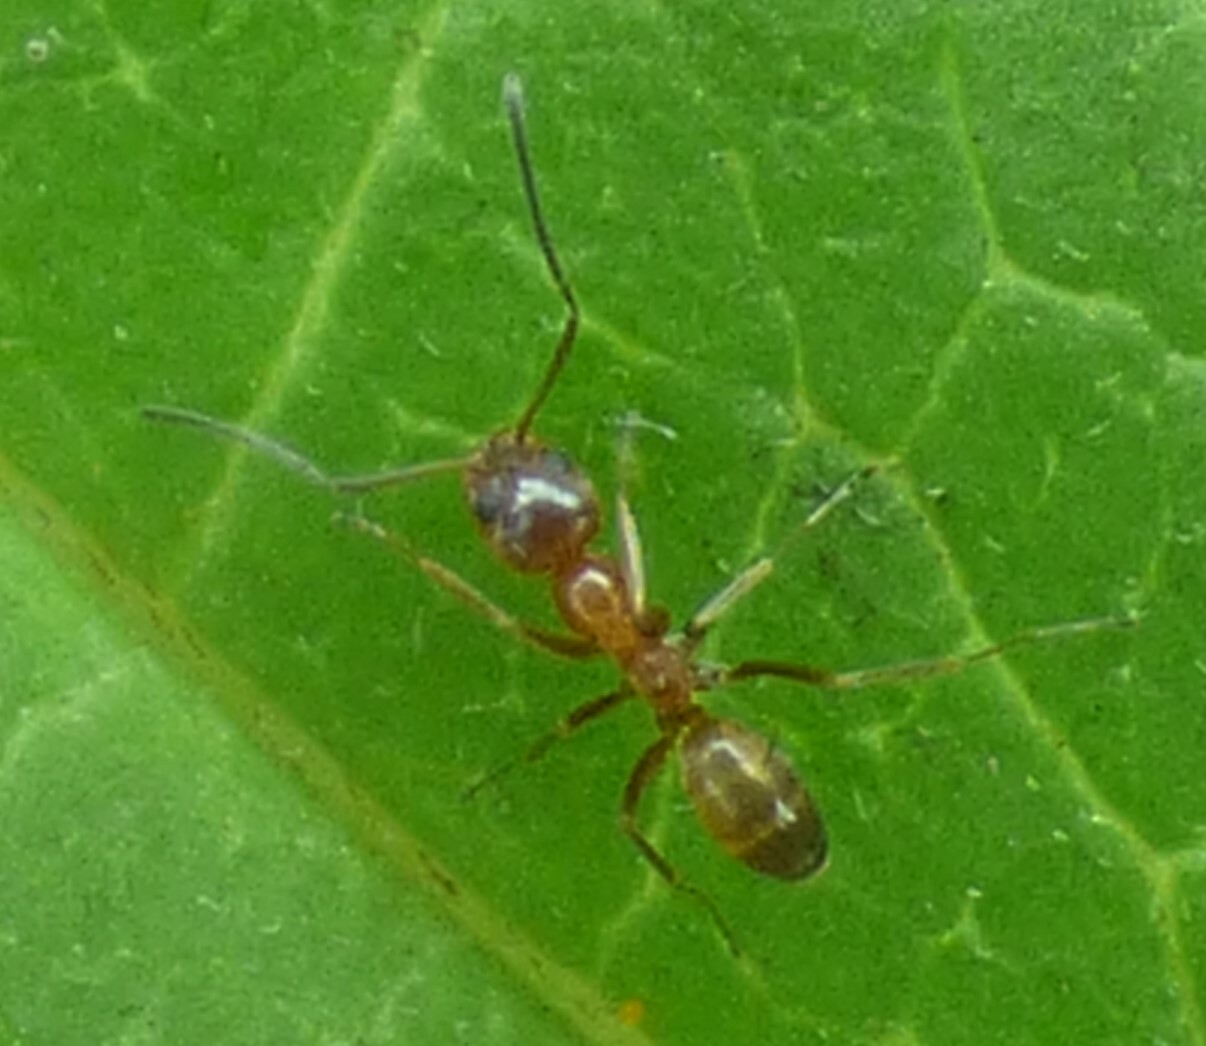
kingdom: Animalia
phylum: Arthropoda
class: Insecta
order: Hymenoptera
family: Formicidae
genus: Dorymyrmex
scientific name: Dorymyrmex bureni
